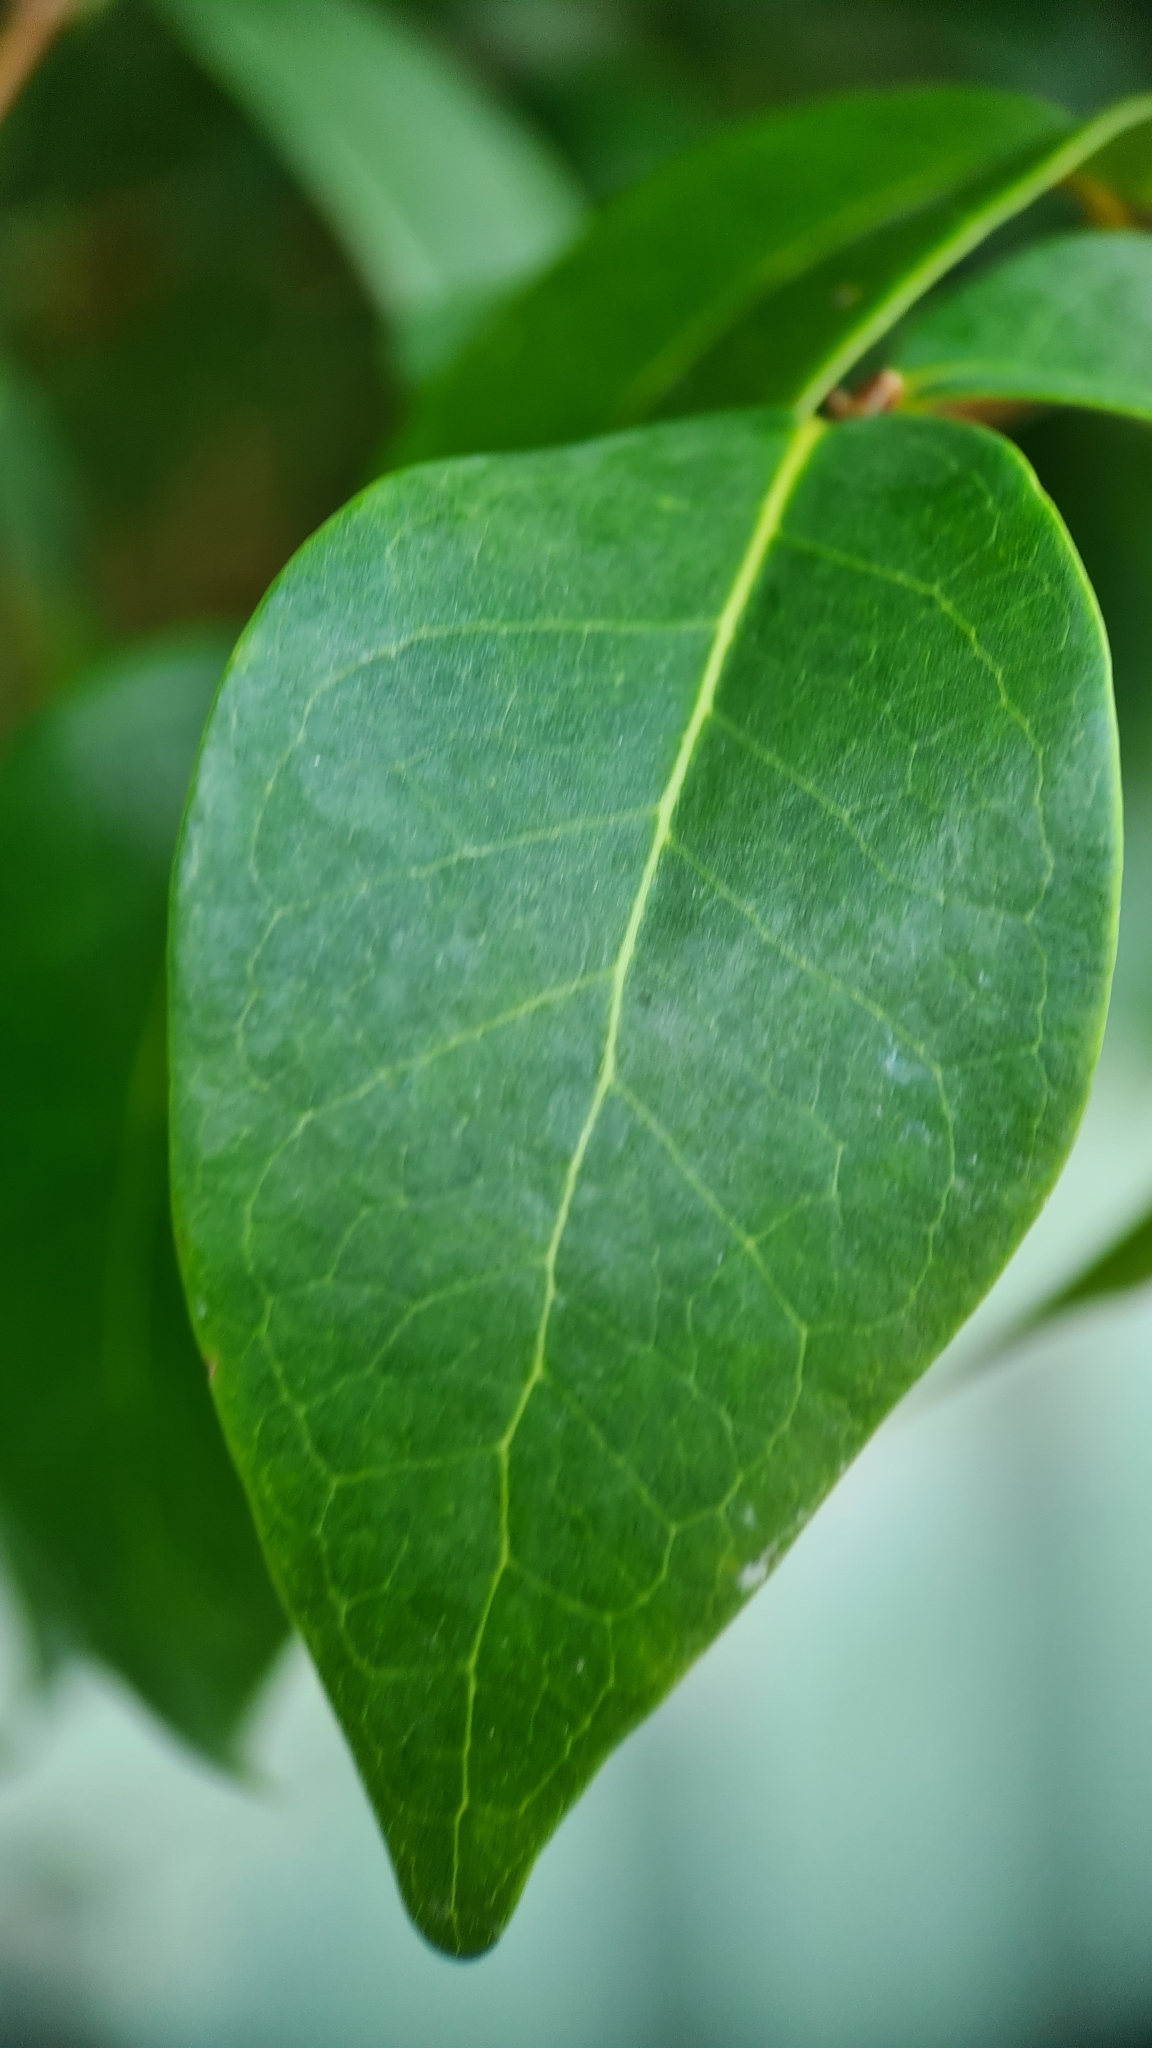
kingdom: Plantae
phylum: Tracheophyta
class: Magnoliopsida
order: Myrtales
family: Myrtaceae
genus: Eugenia
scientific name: Eugenia uniflora
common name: Surinam cherry
